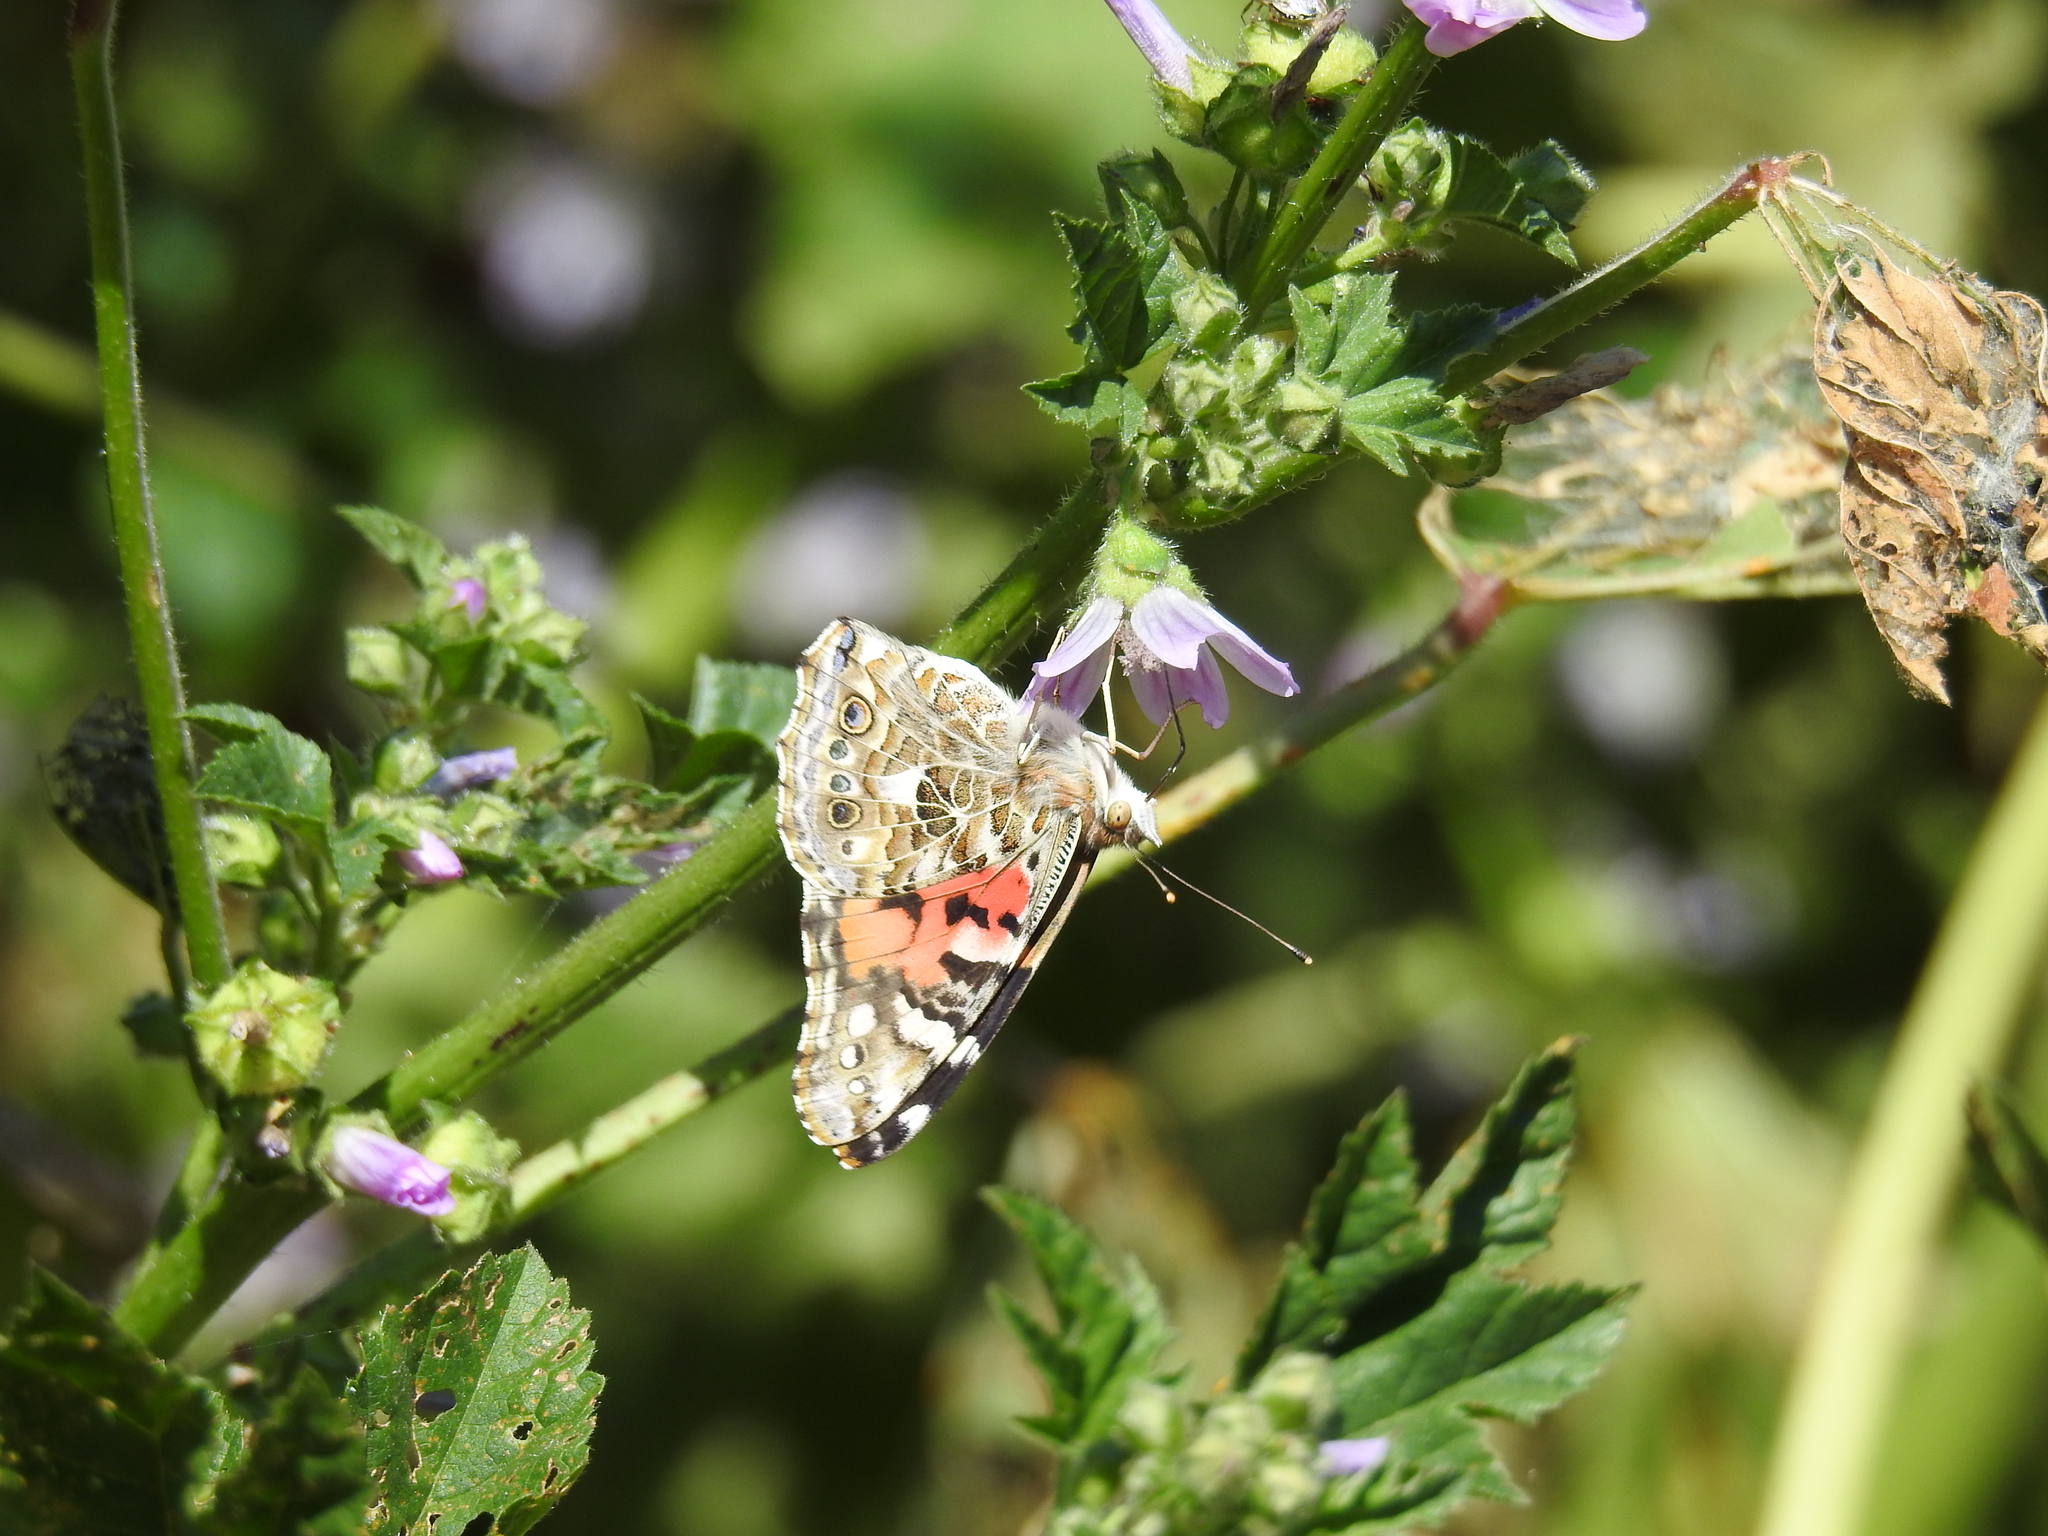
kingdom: Animalia
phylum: Arthropoda
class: Insecta
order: Lepidoptera
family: Nymphalidae
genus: Vanessa
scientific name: Vanessa cardui
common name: Painted lady
